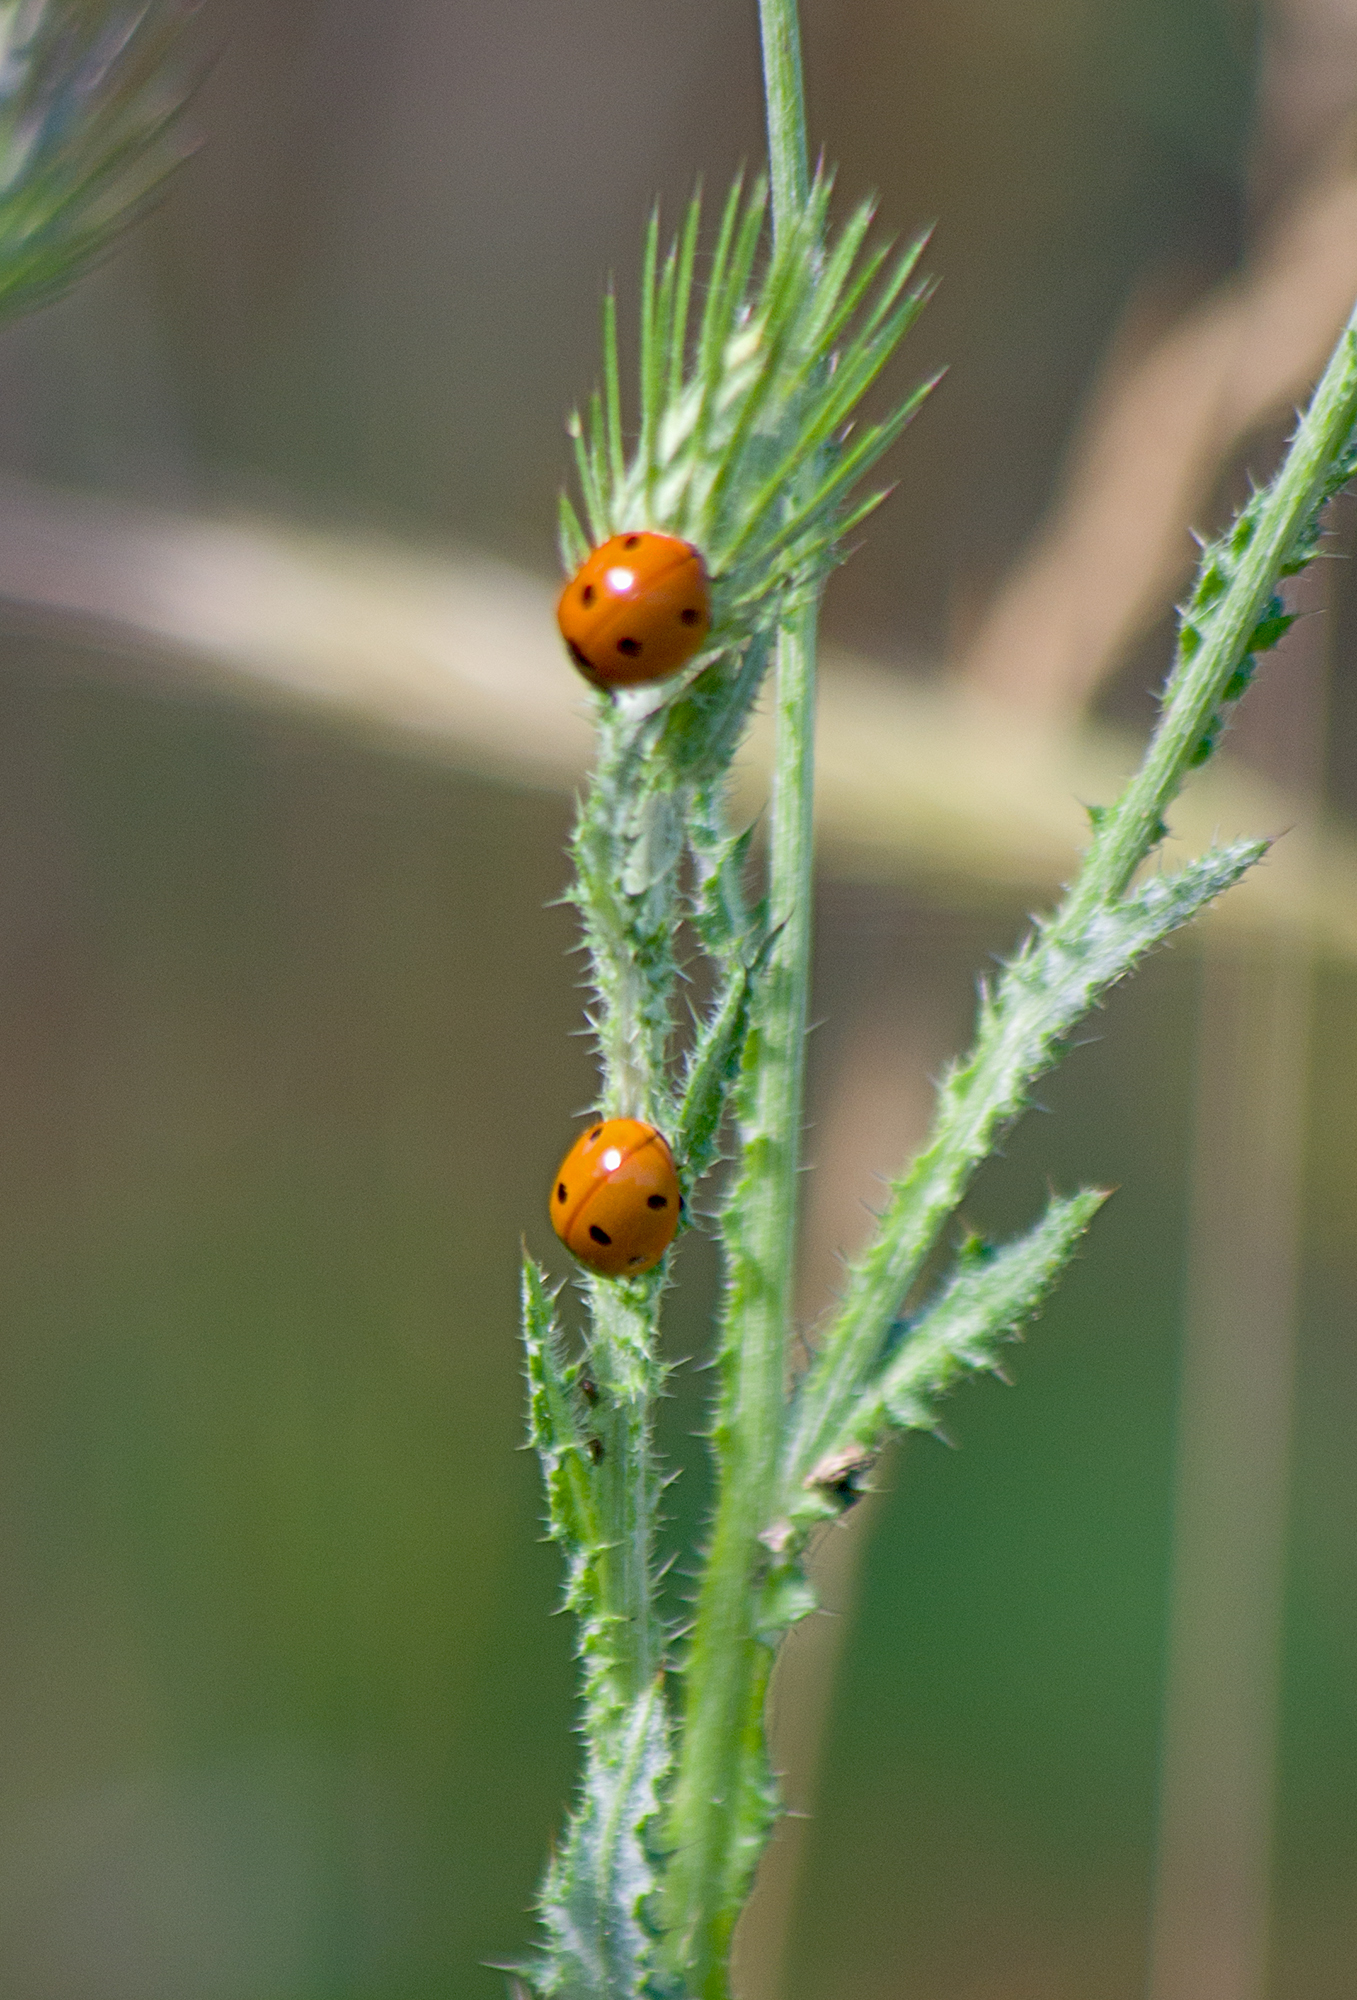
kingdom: Animalia
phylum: Arthropoda
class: Insecta
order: Coleoptera
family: Coccinellidae
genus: Coccinella
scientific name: Coccinella septempunctata
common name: Sevenspotted lady beetle
